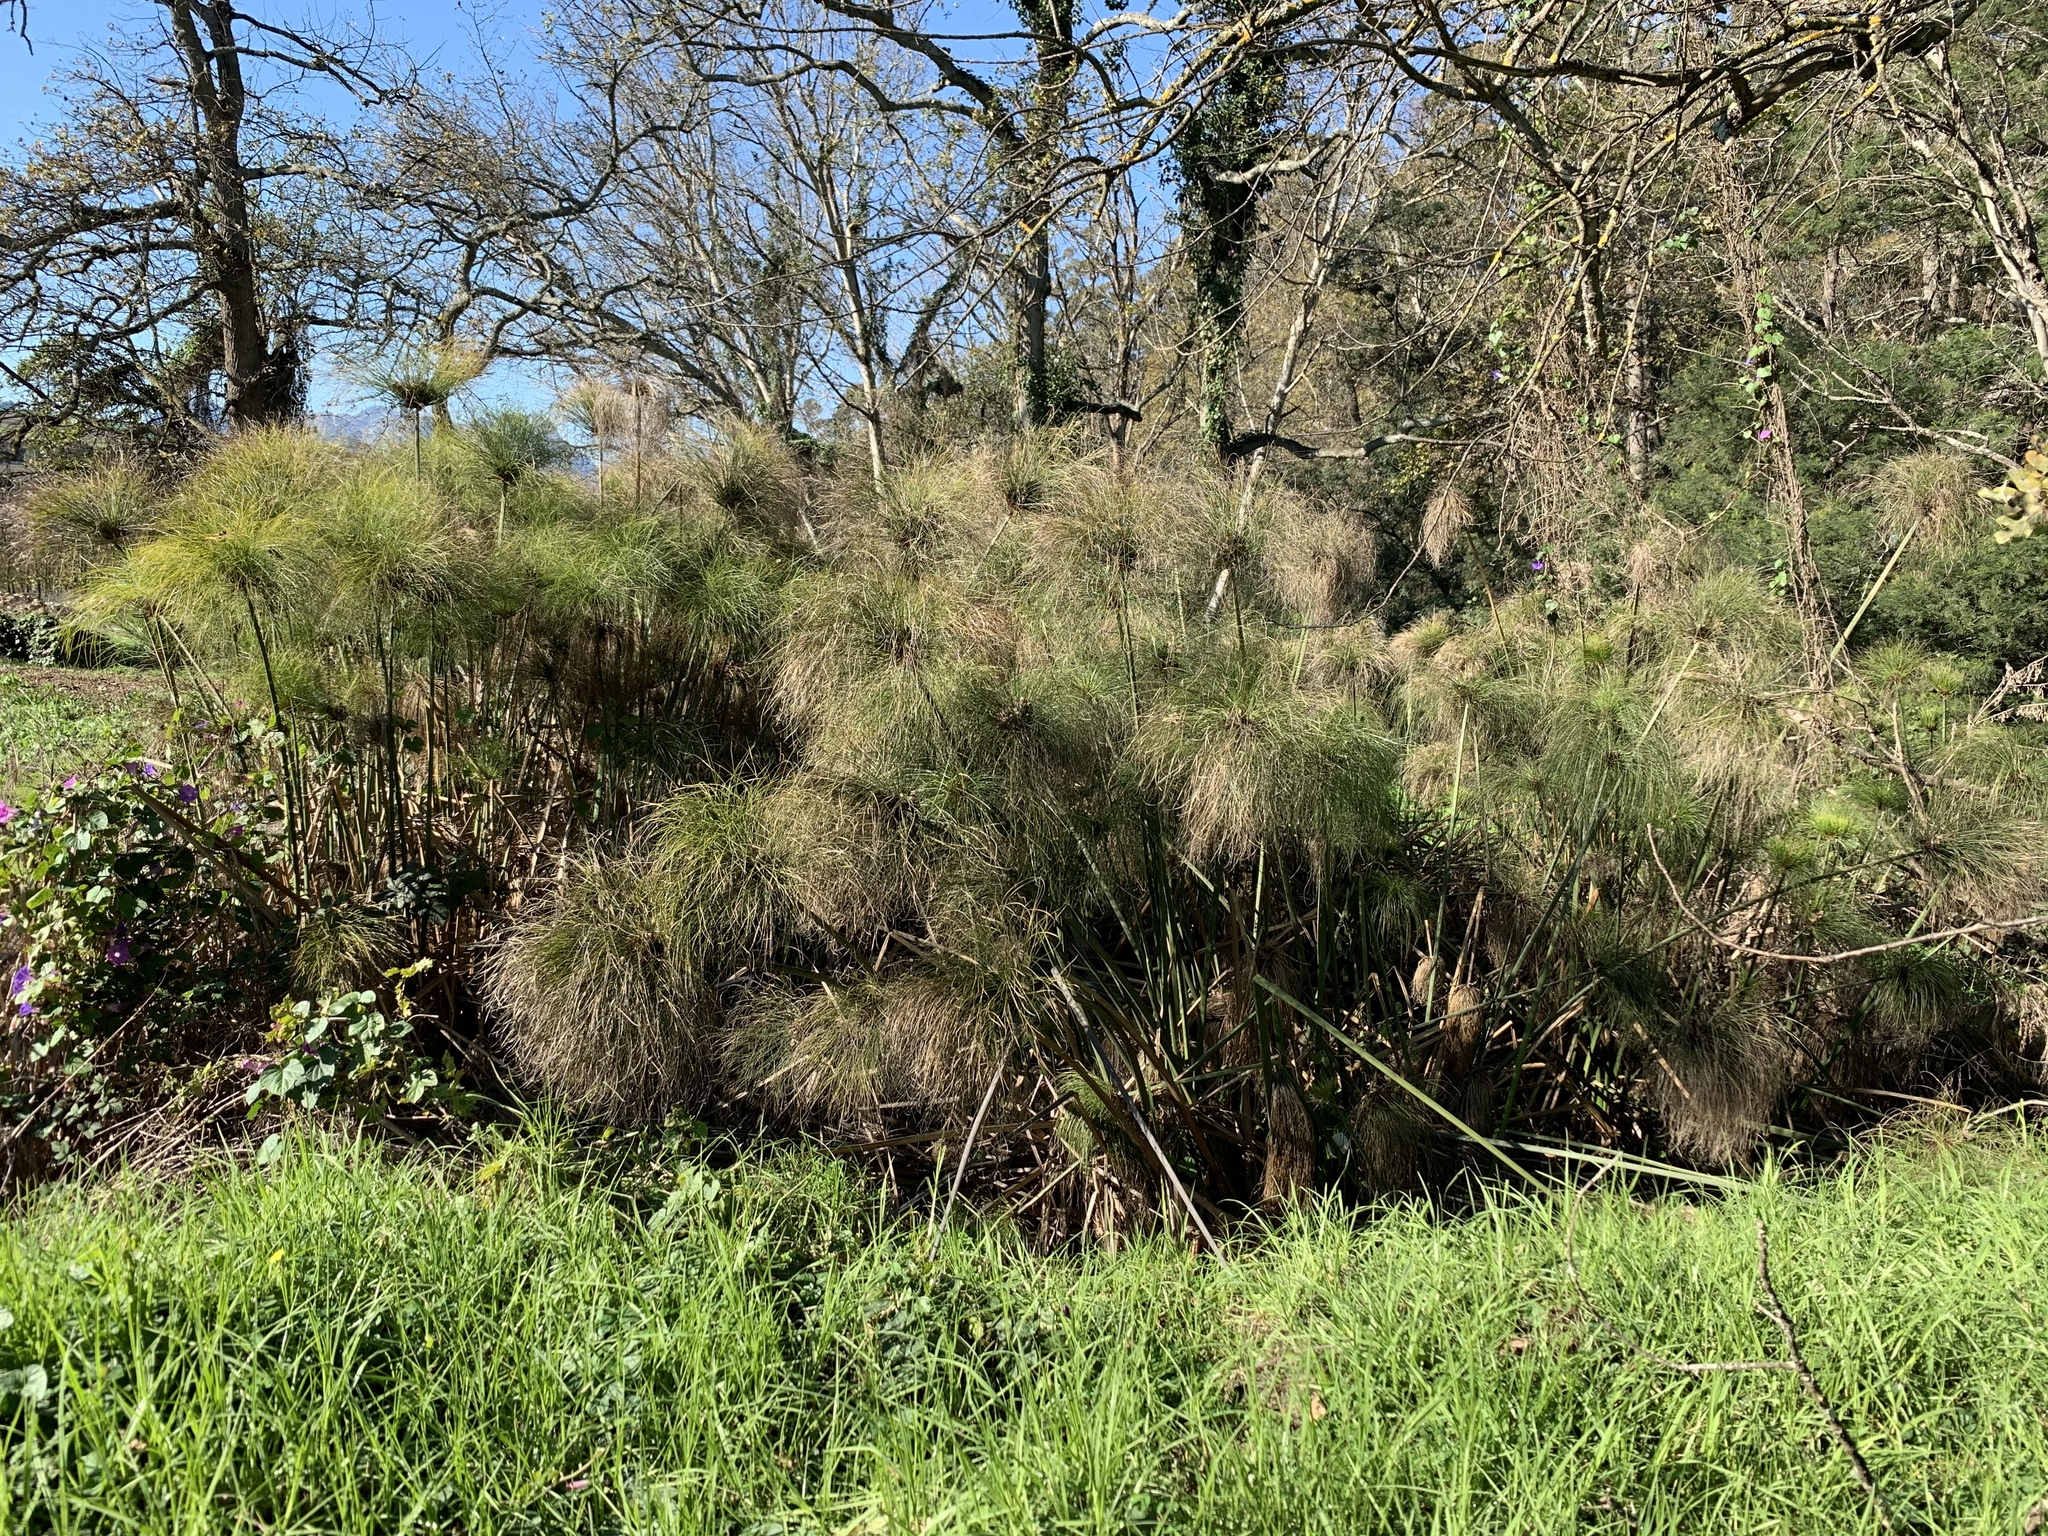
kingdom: Plantae
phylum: Tracheophyta
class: Liliopsida
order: Poales
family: Cyperaceae
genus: Cyperus
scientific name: Cyperus papyrus
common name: Papyrus
